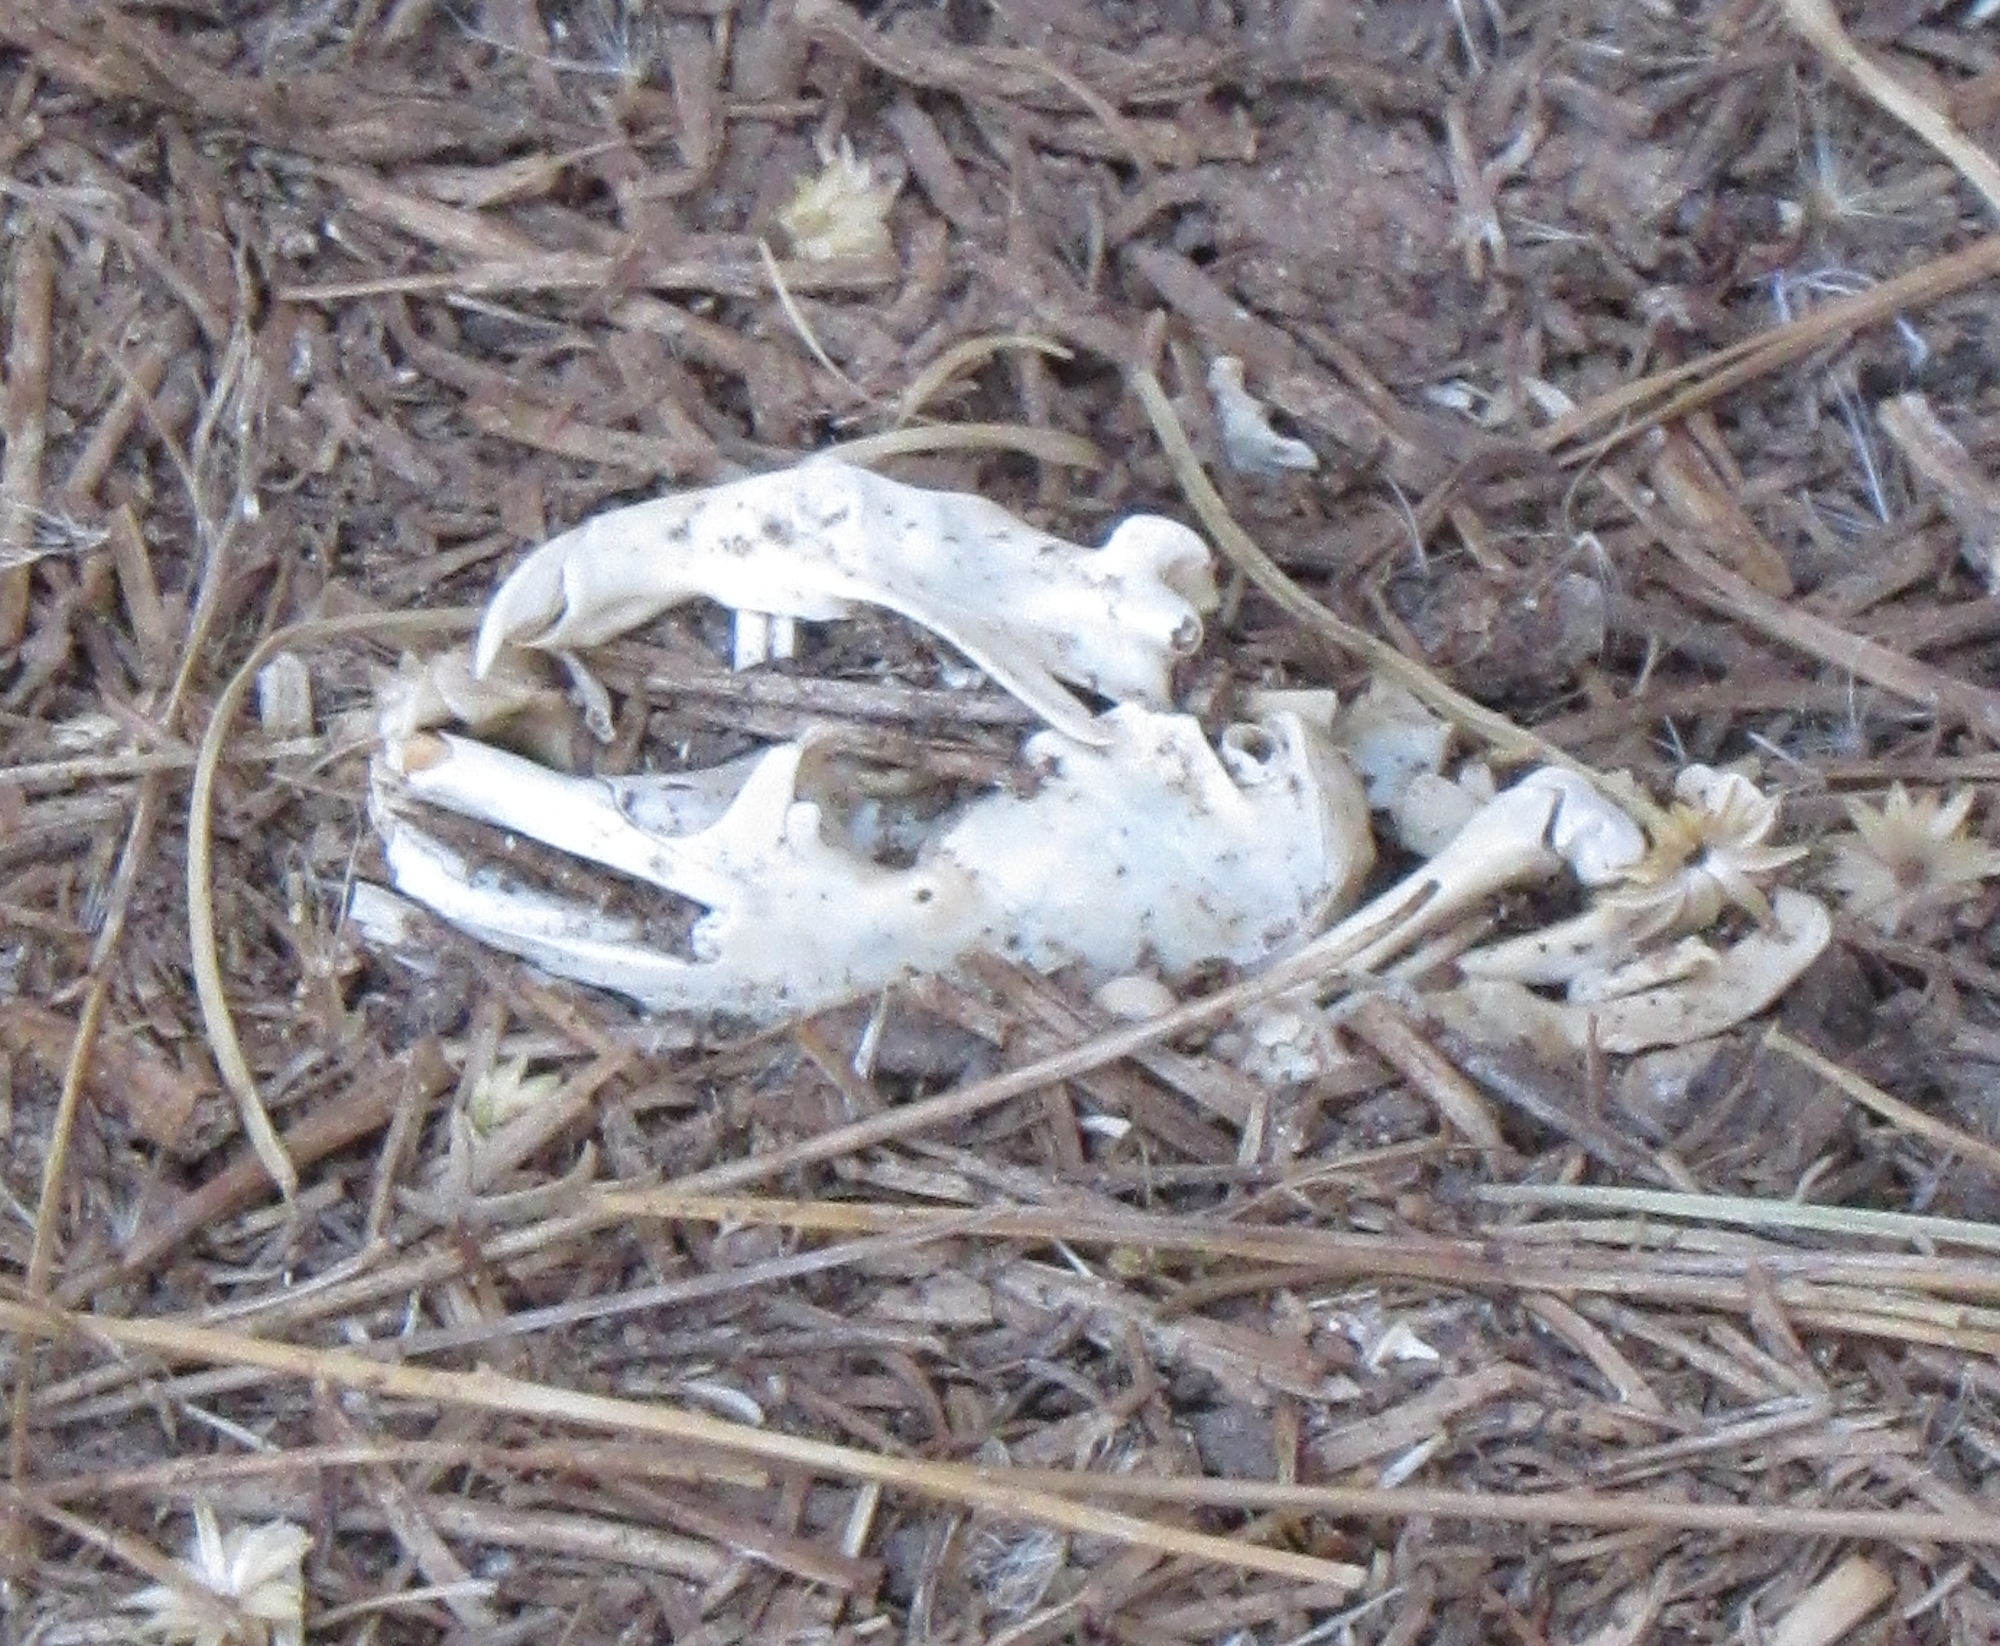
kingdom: Animalia
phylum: Chordata
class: Mammalia
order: Rodentia
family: Geomyidae
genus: Thomomys
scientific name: Thomomys bottae
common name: Botta's pocket gopher
